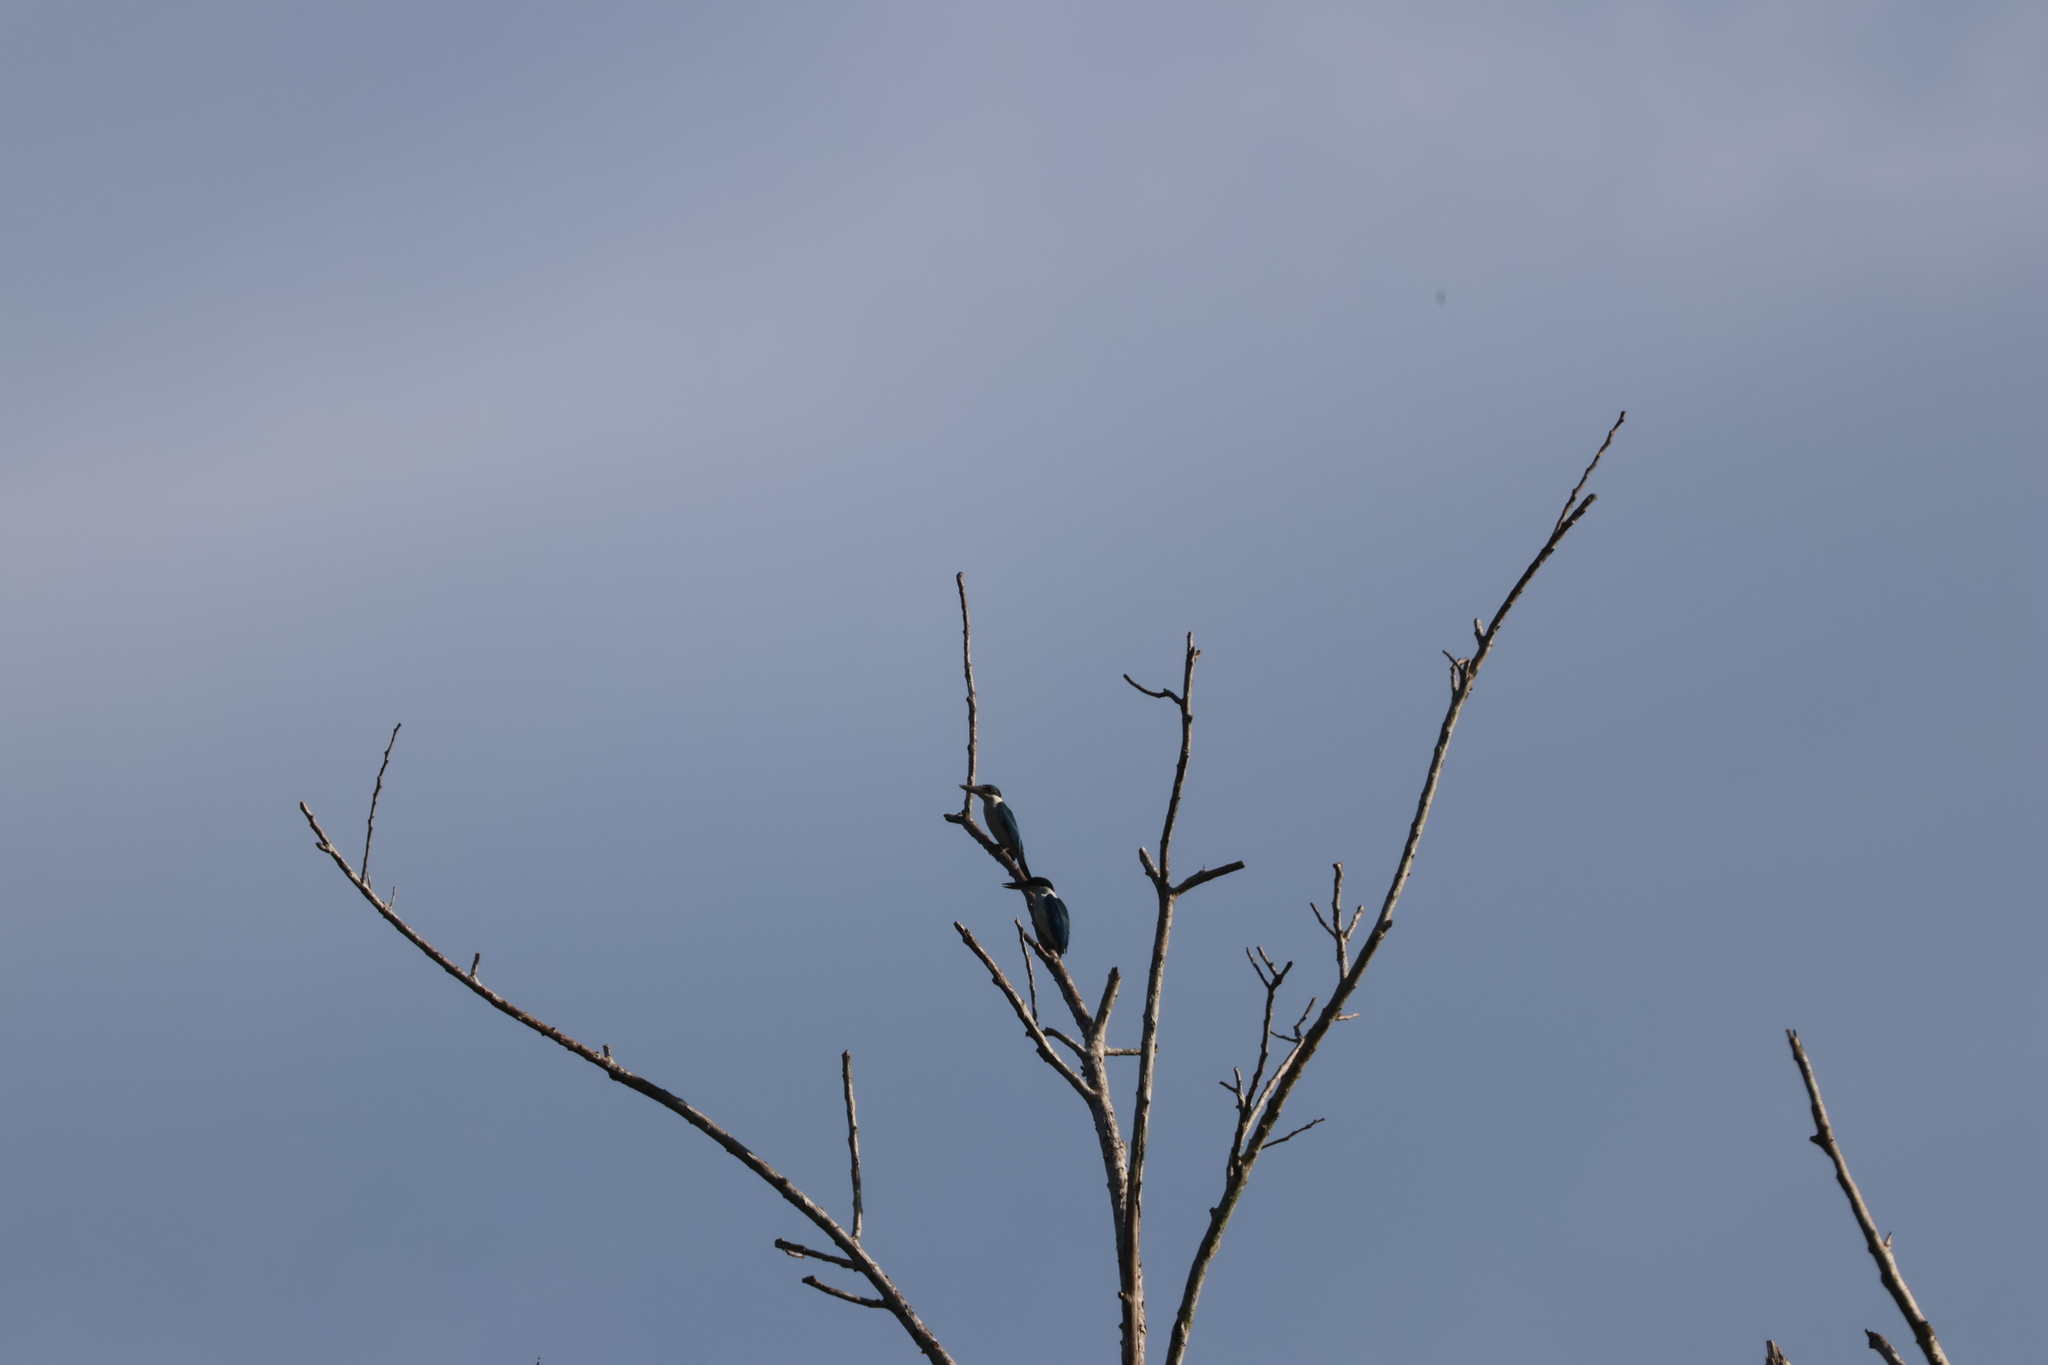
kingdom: Animalia
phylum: Chordata
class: Aves
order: Coraciiformes
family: Alcedinidae
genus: Todiramphus
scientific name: Todiramphus chloris
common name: Collared kingfisher
